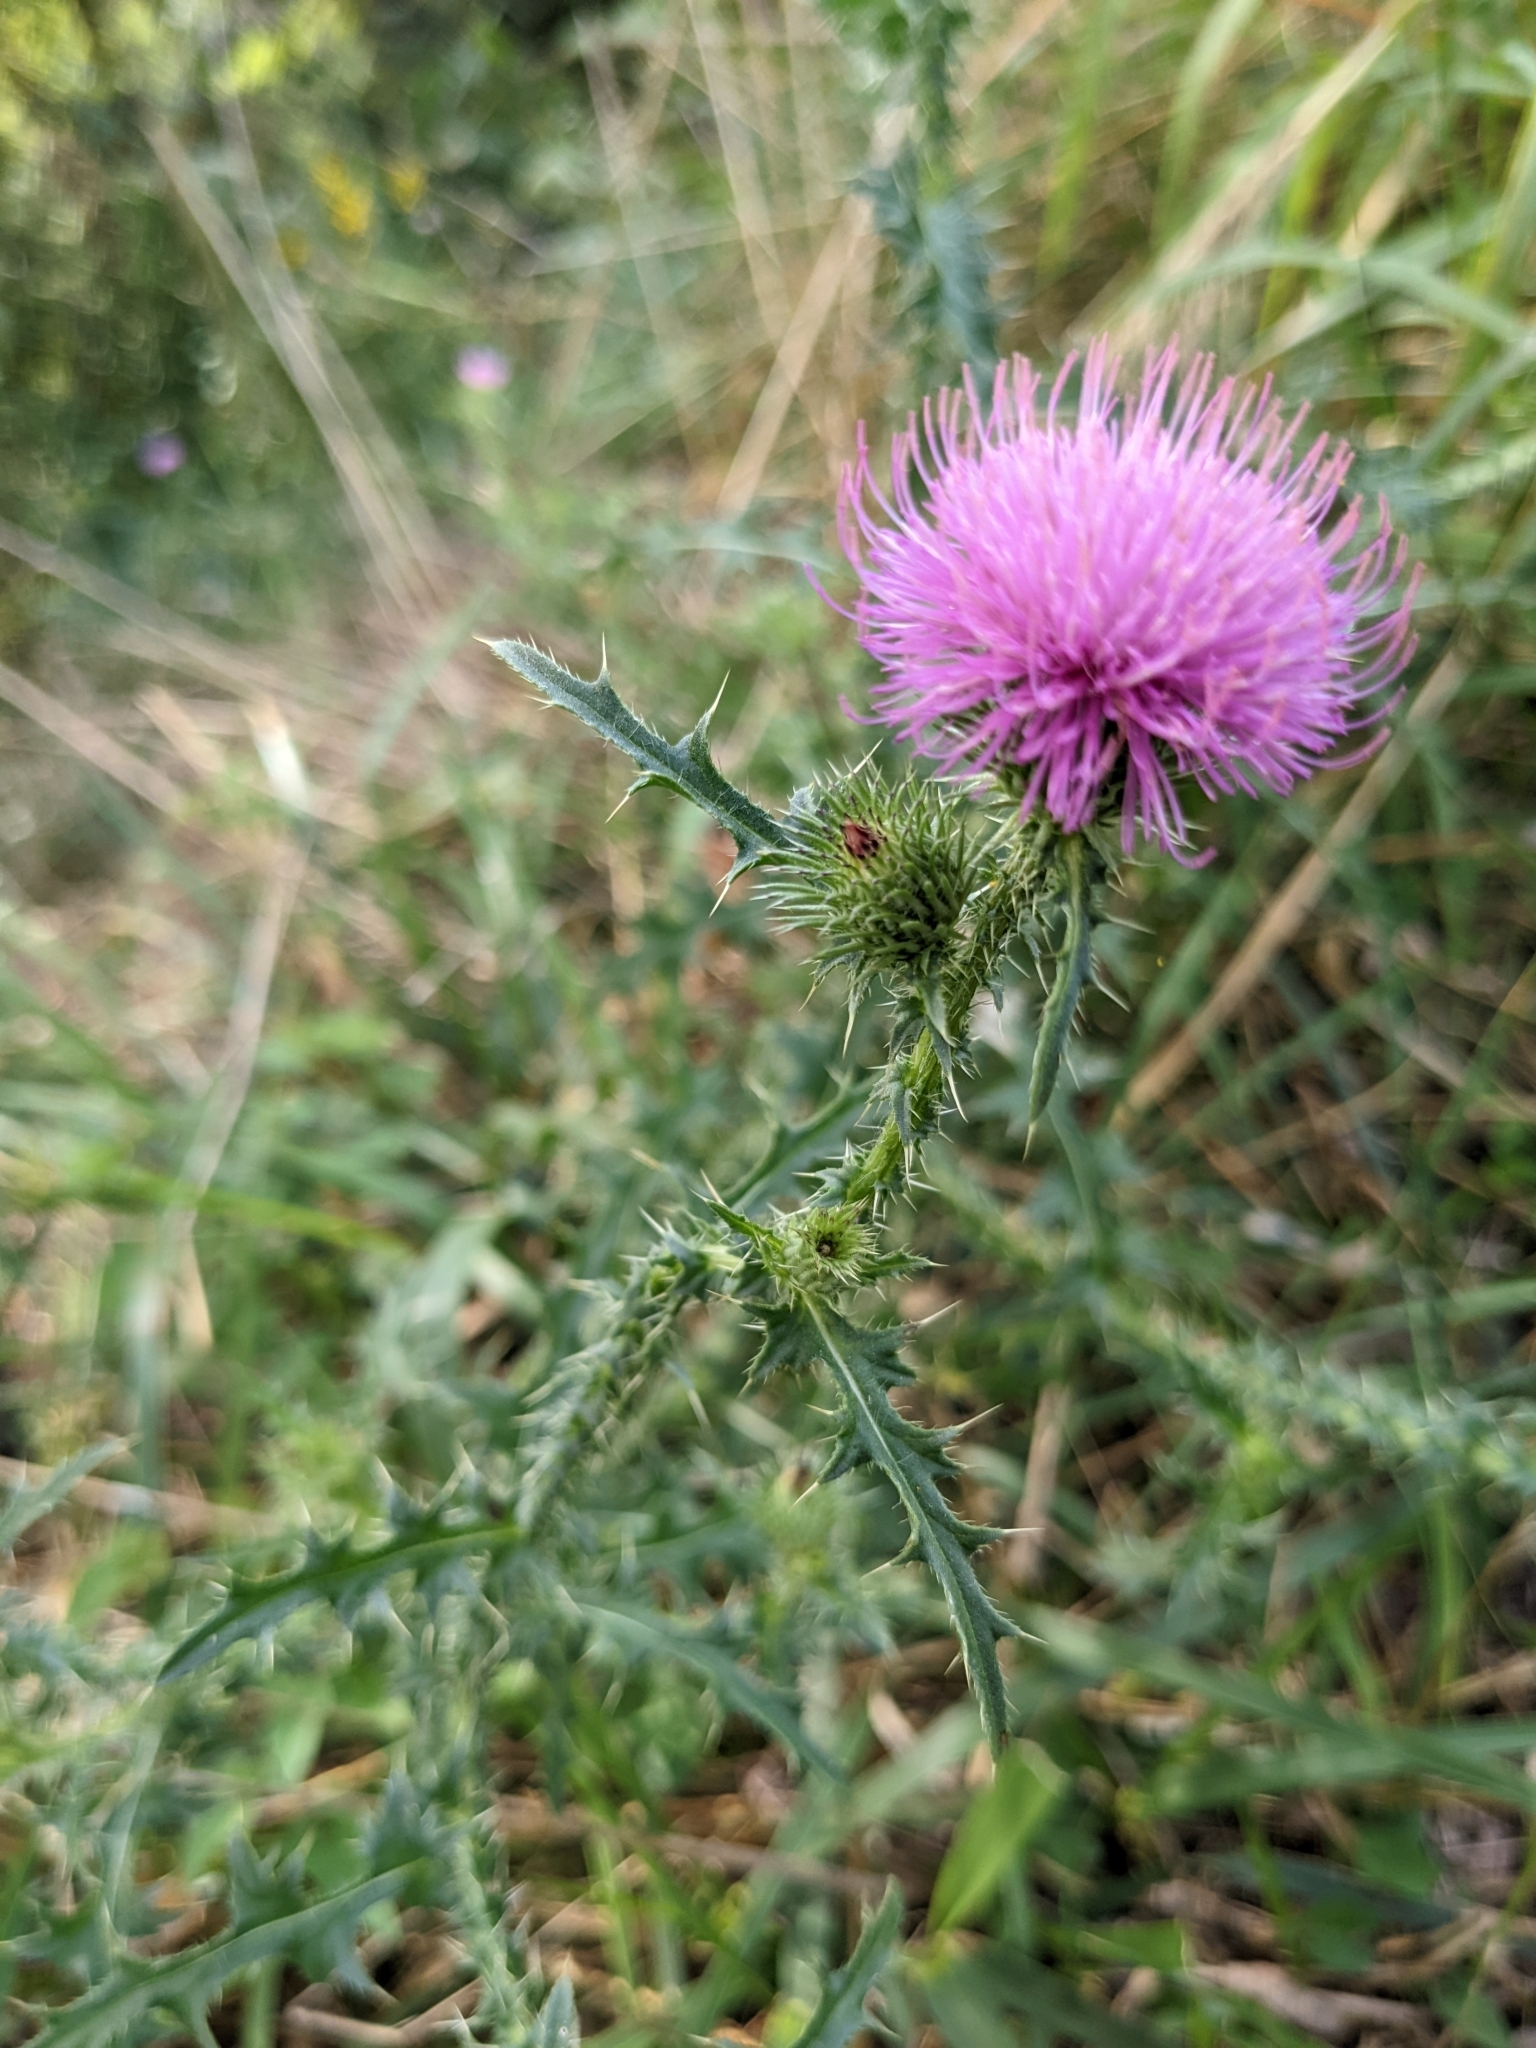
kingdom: Plantae
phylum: Tracheophyta
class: Magnoliopsida
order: Asterales
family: Asteraceae
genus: Carduus
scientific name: Carduus acanthoides
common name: Plumeless thistle
